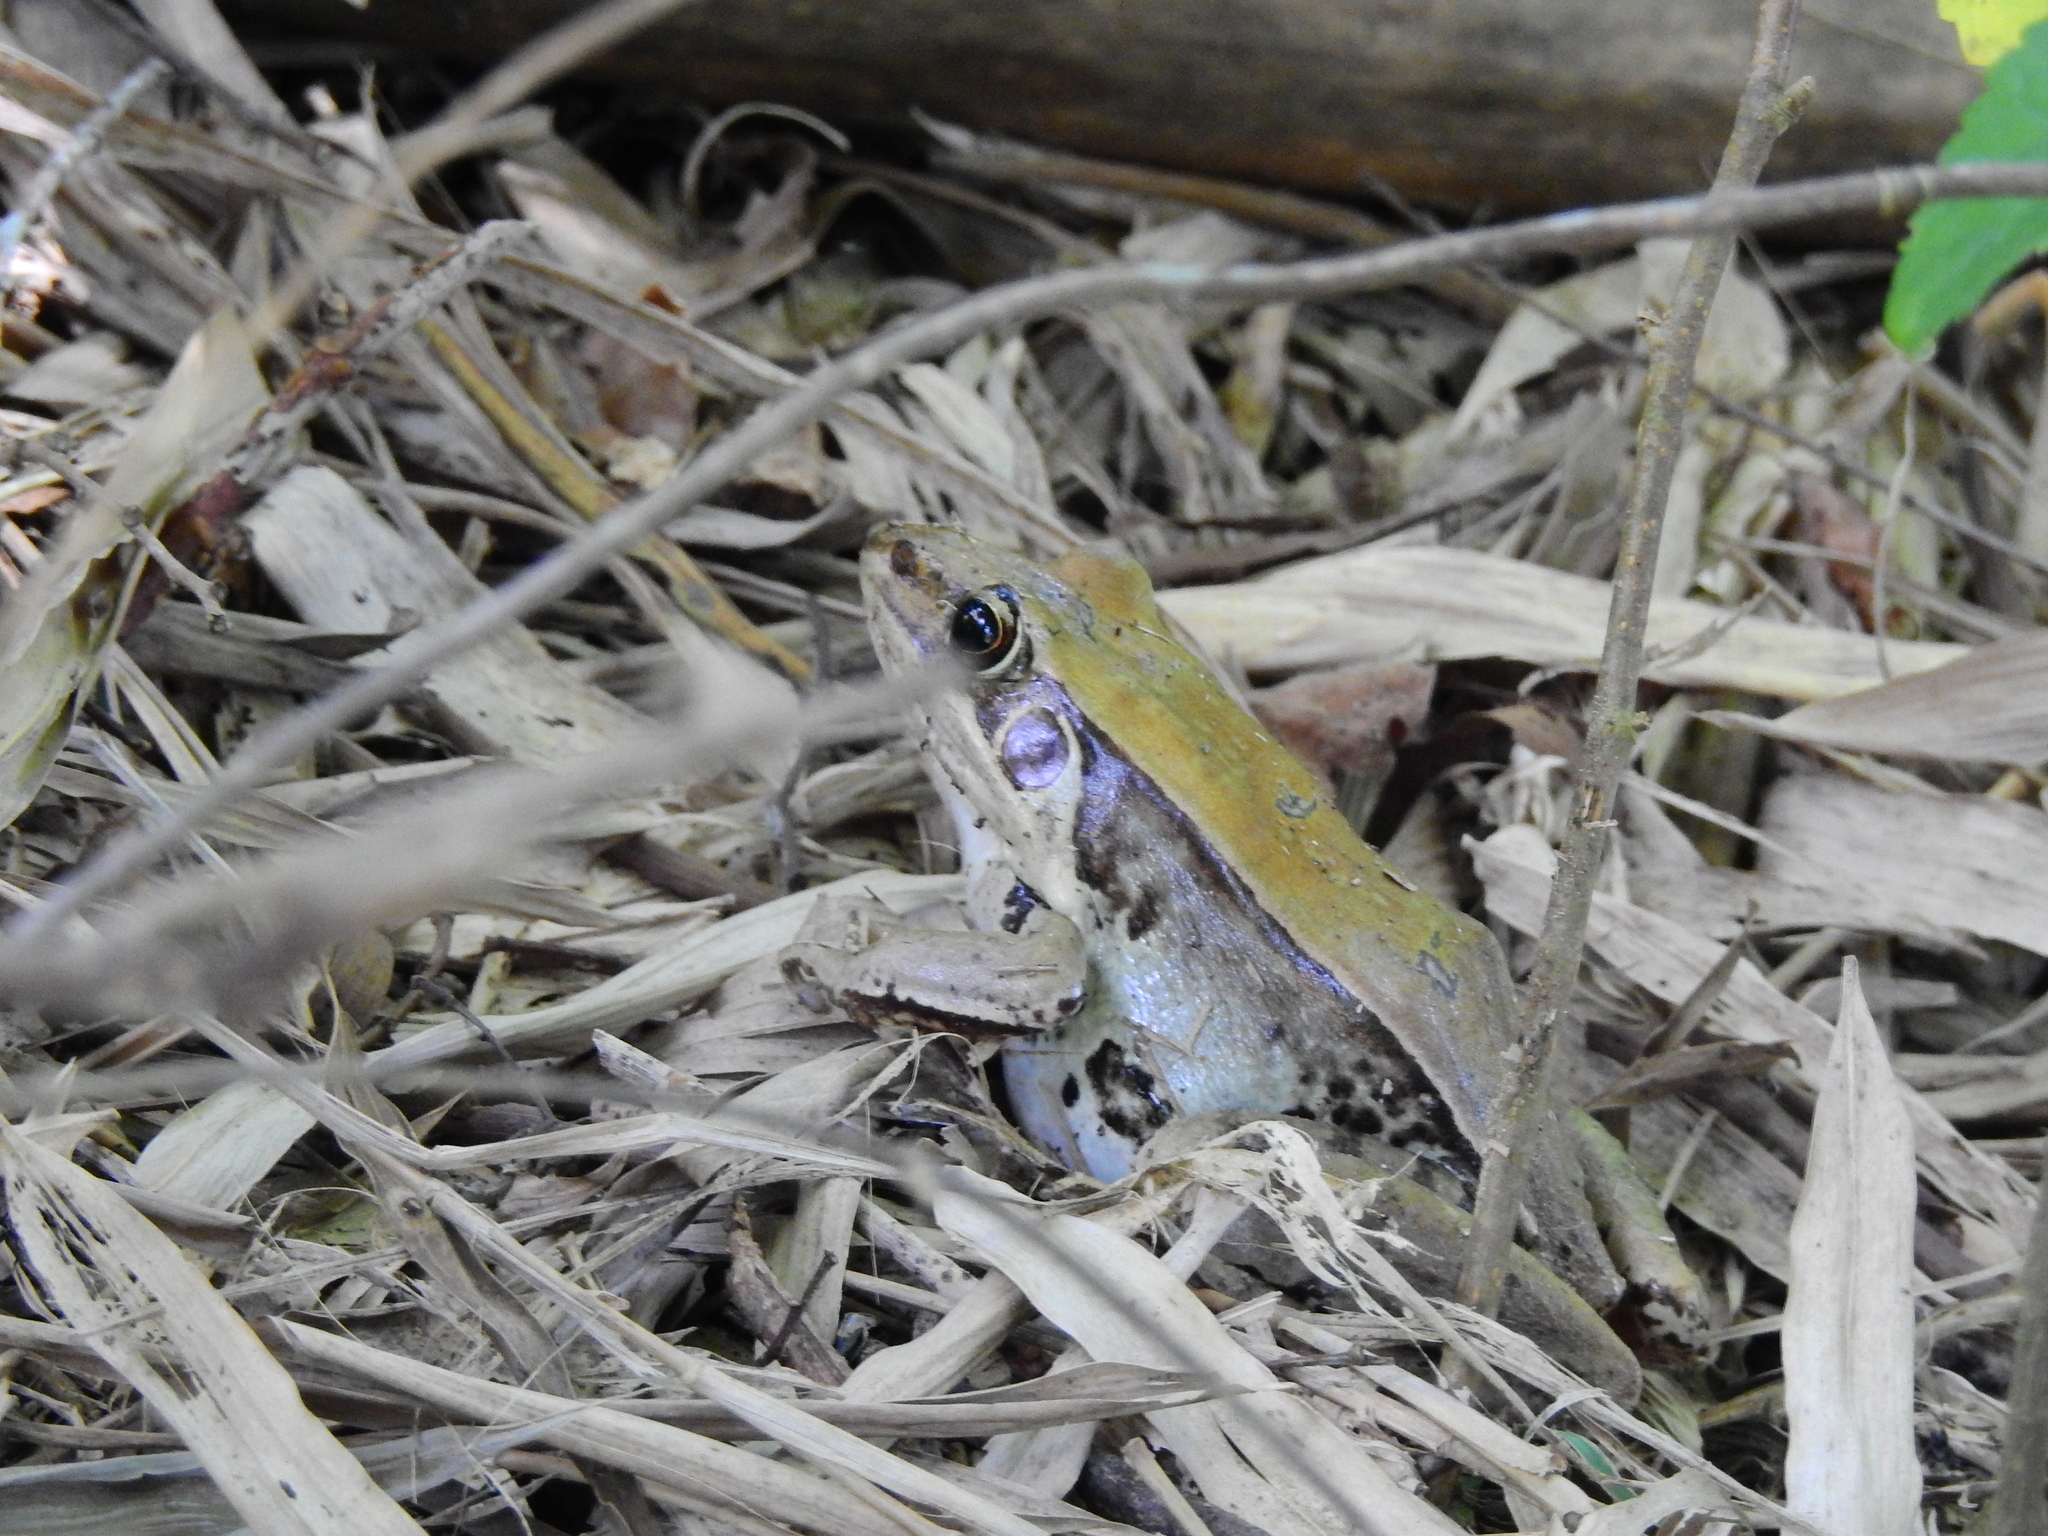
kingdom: Animalia
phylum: Chordata
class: Amphibia
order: Anura
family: Ranidae
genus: Sylvirana
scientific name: Sylvirana guentheri
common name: Guenther's amoy frog
